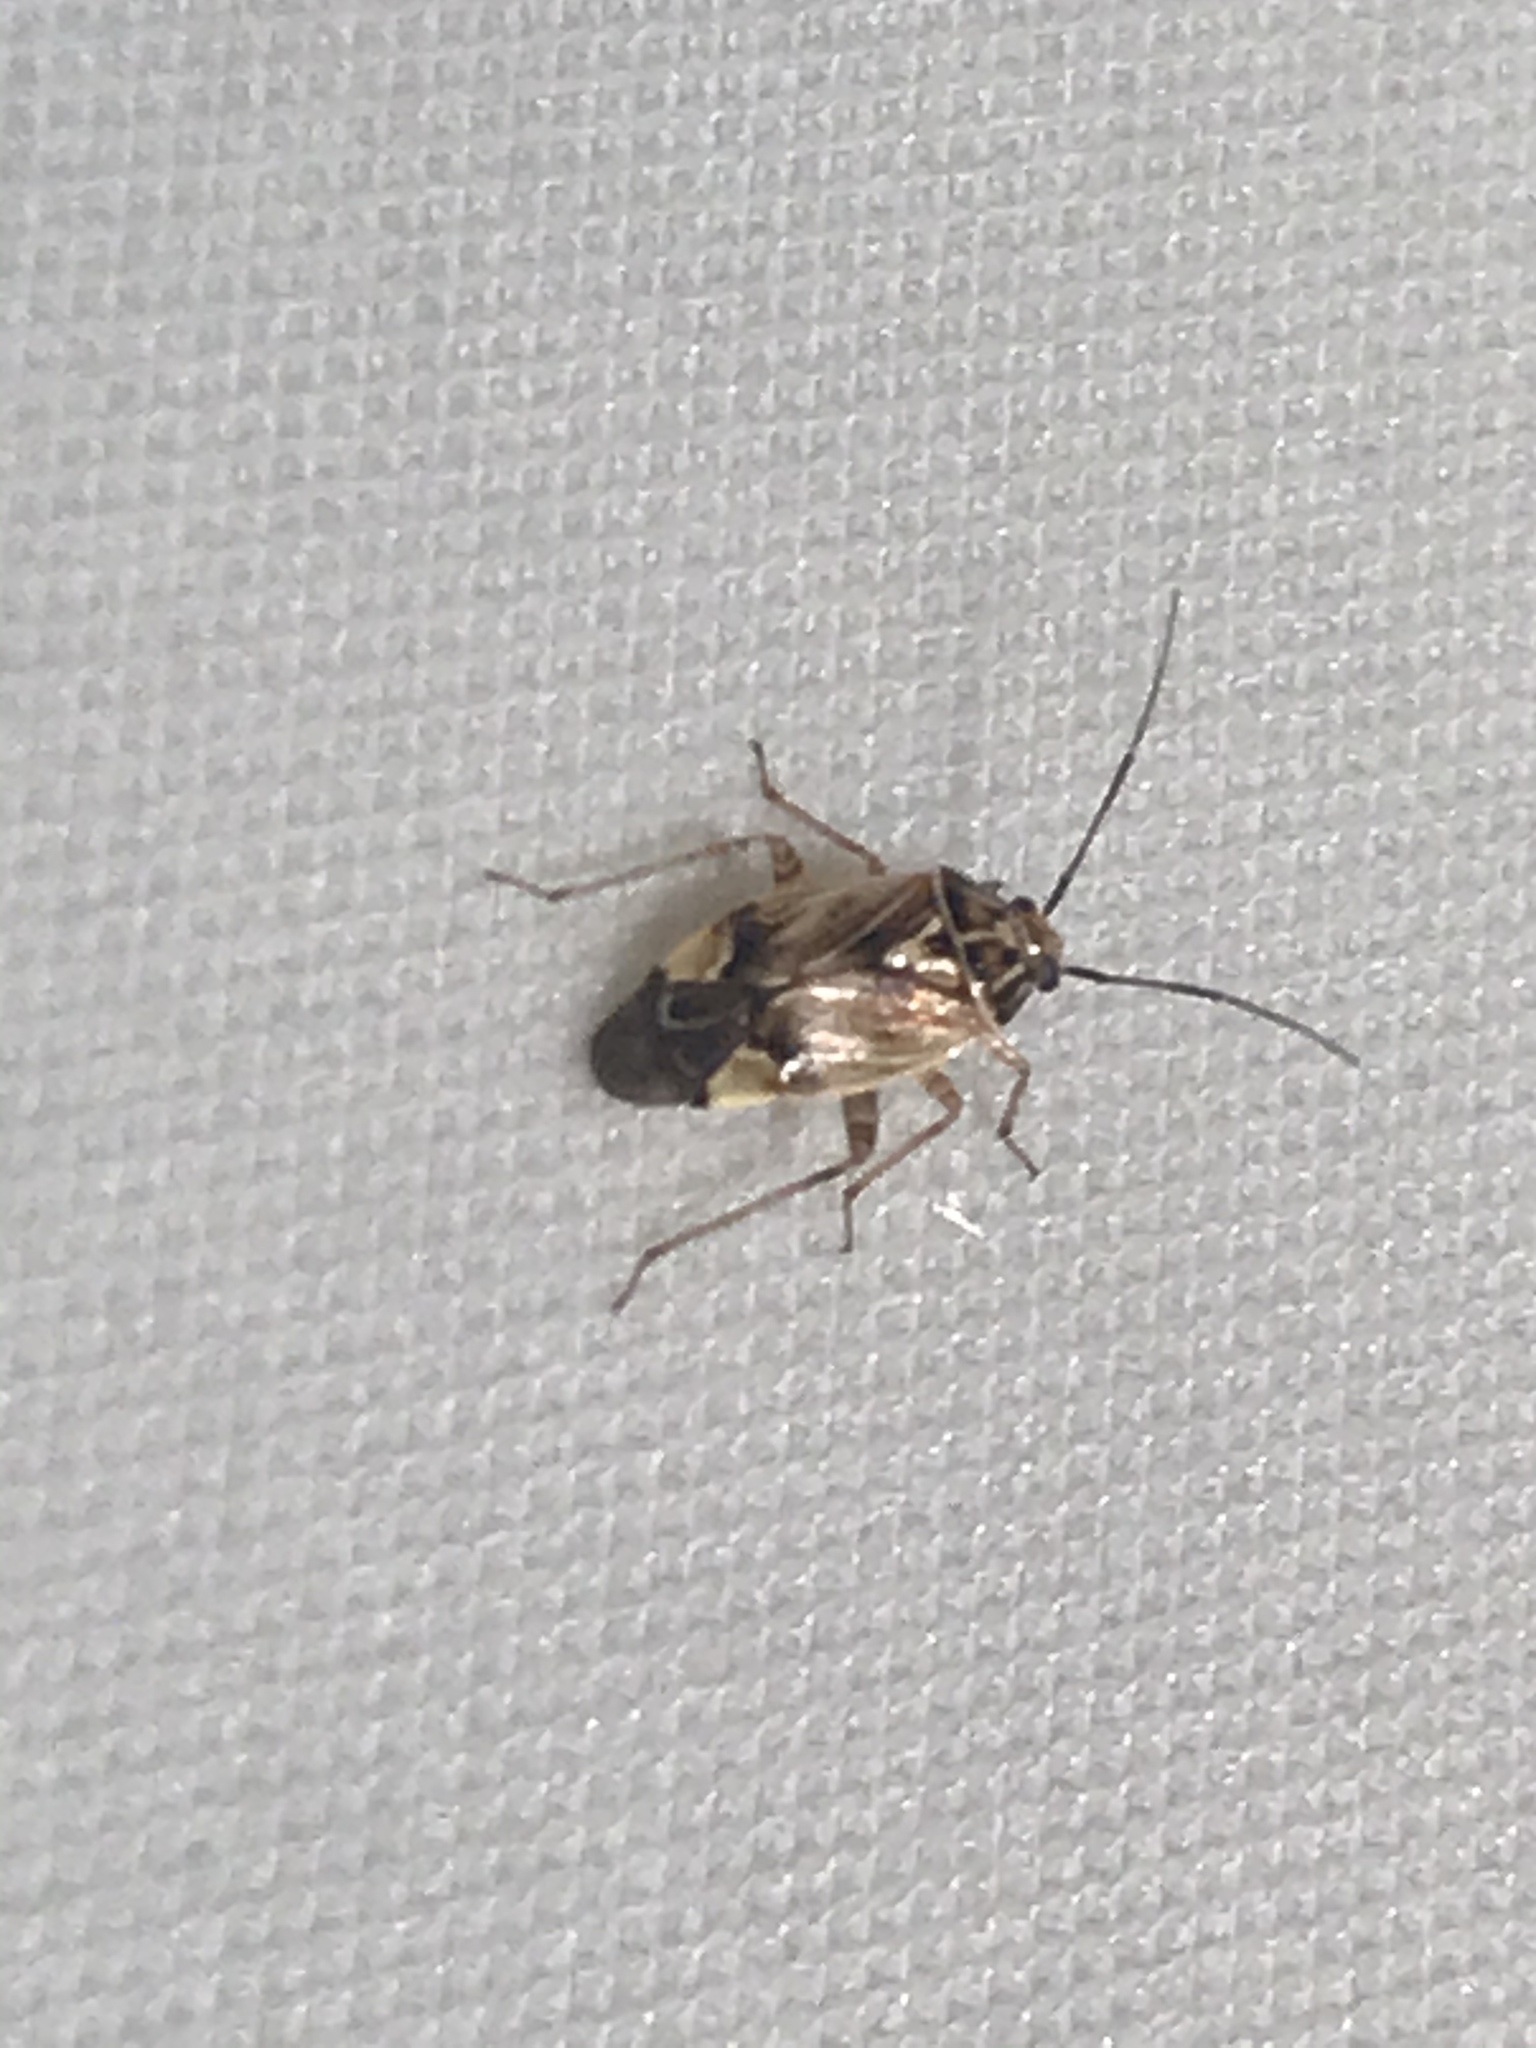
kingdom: Animalia
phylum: Arthropoda
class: Insecta
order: Hemiptera
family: Miridae
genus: Lygus
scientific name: Lygus lineolaris
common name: North american tarnished plant bug
